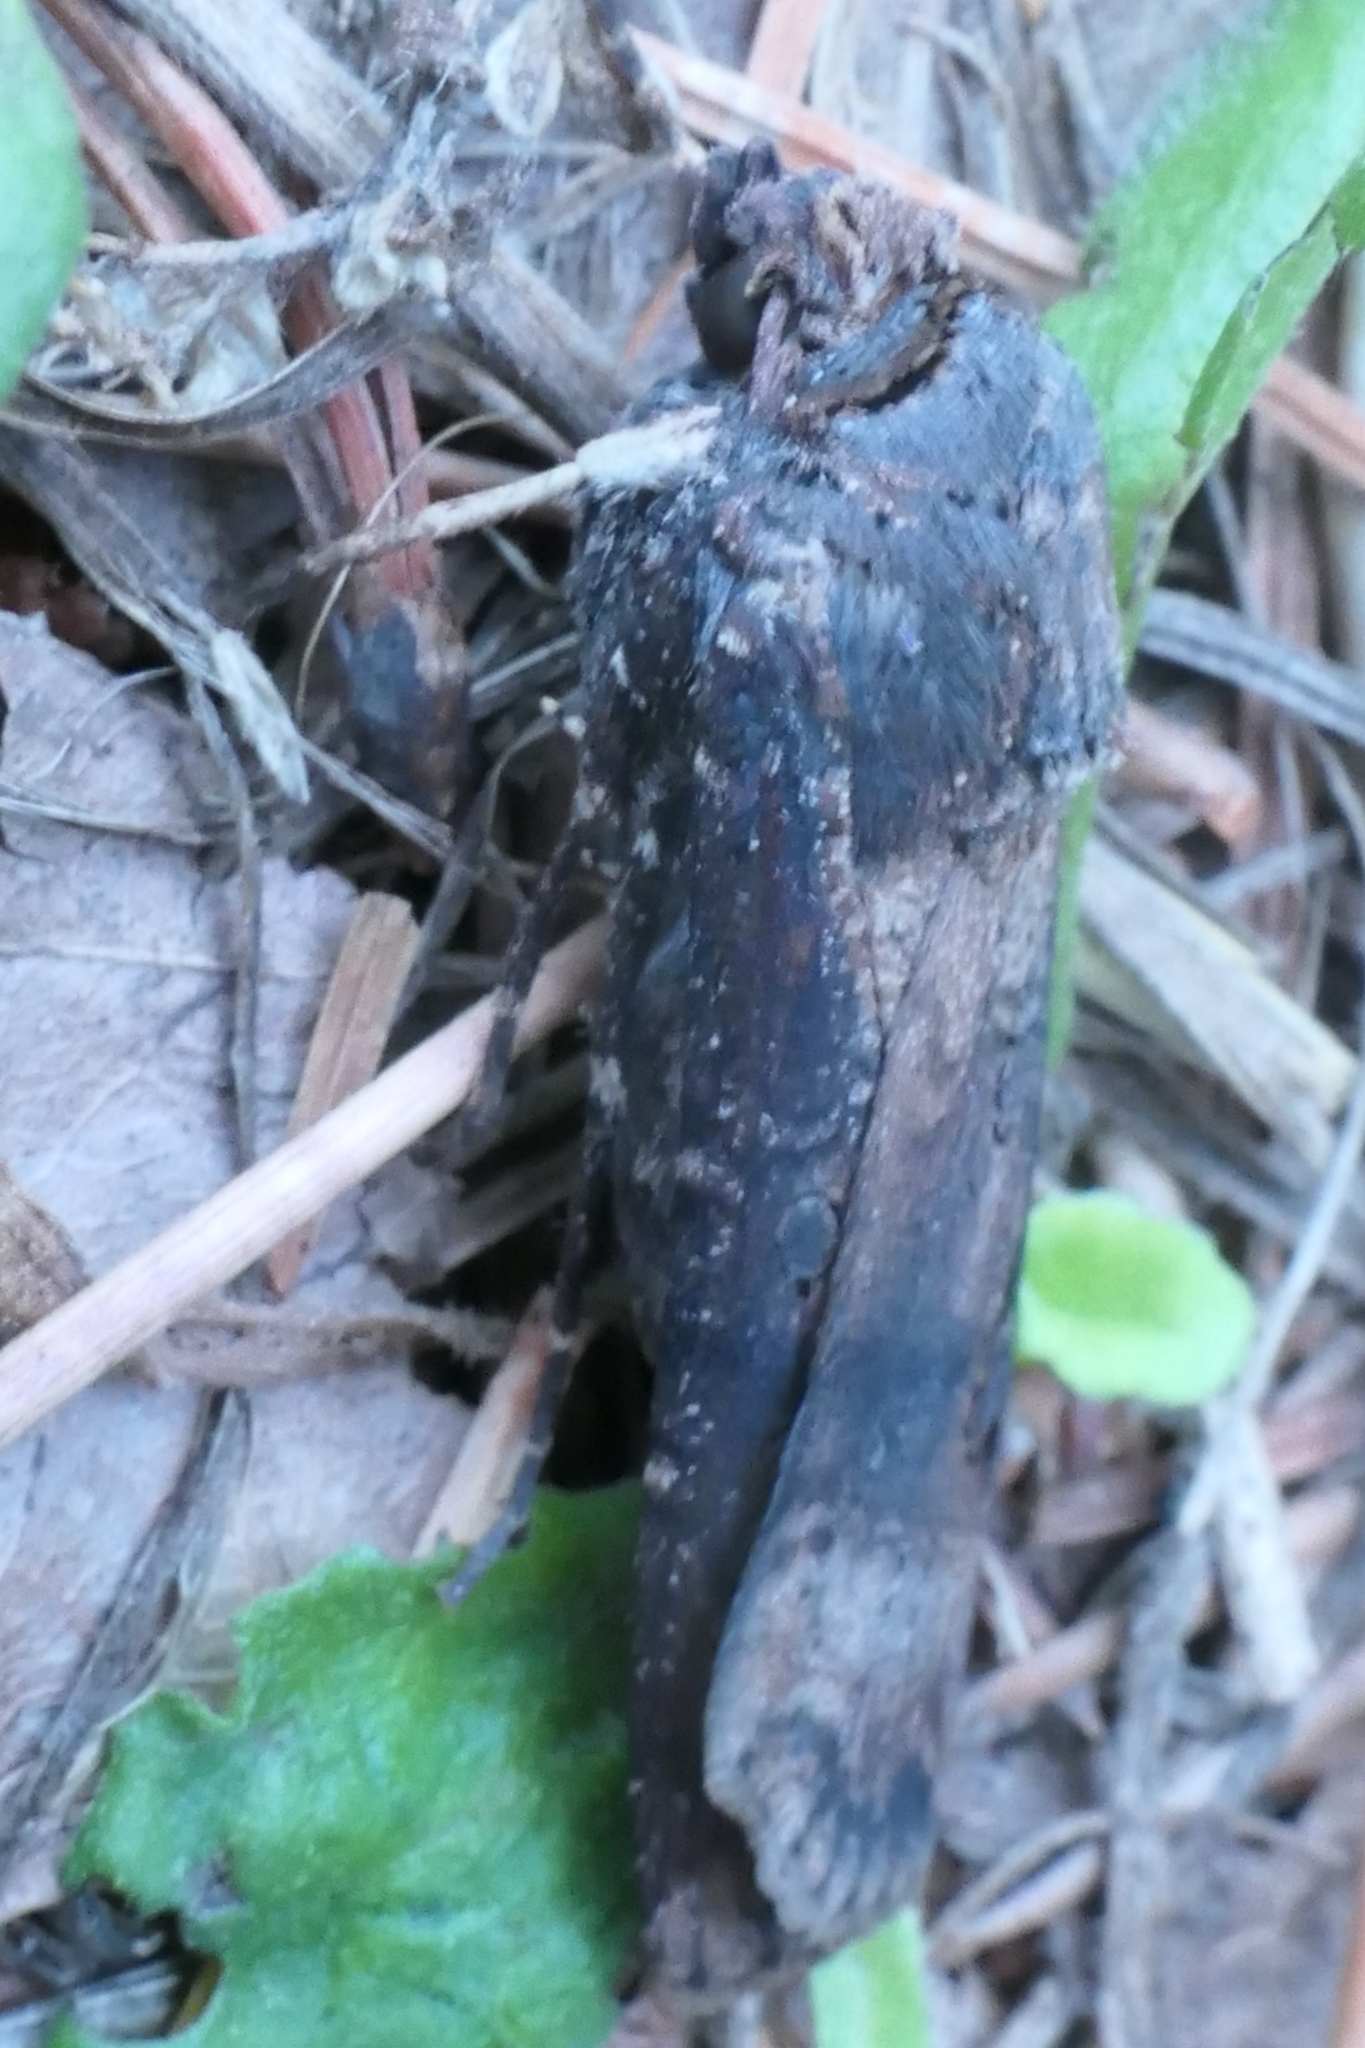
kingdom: Animalia
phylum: Arthropoda
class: Insecta
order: Lepidoptera
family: Noctuidae
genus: Agrotis
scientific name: Agrotis ipsilon
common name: Dark sword-grass
